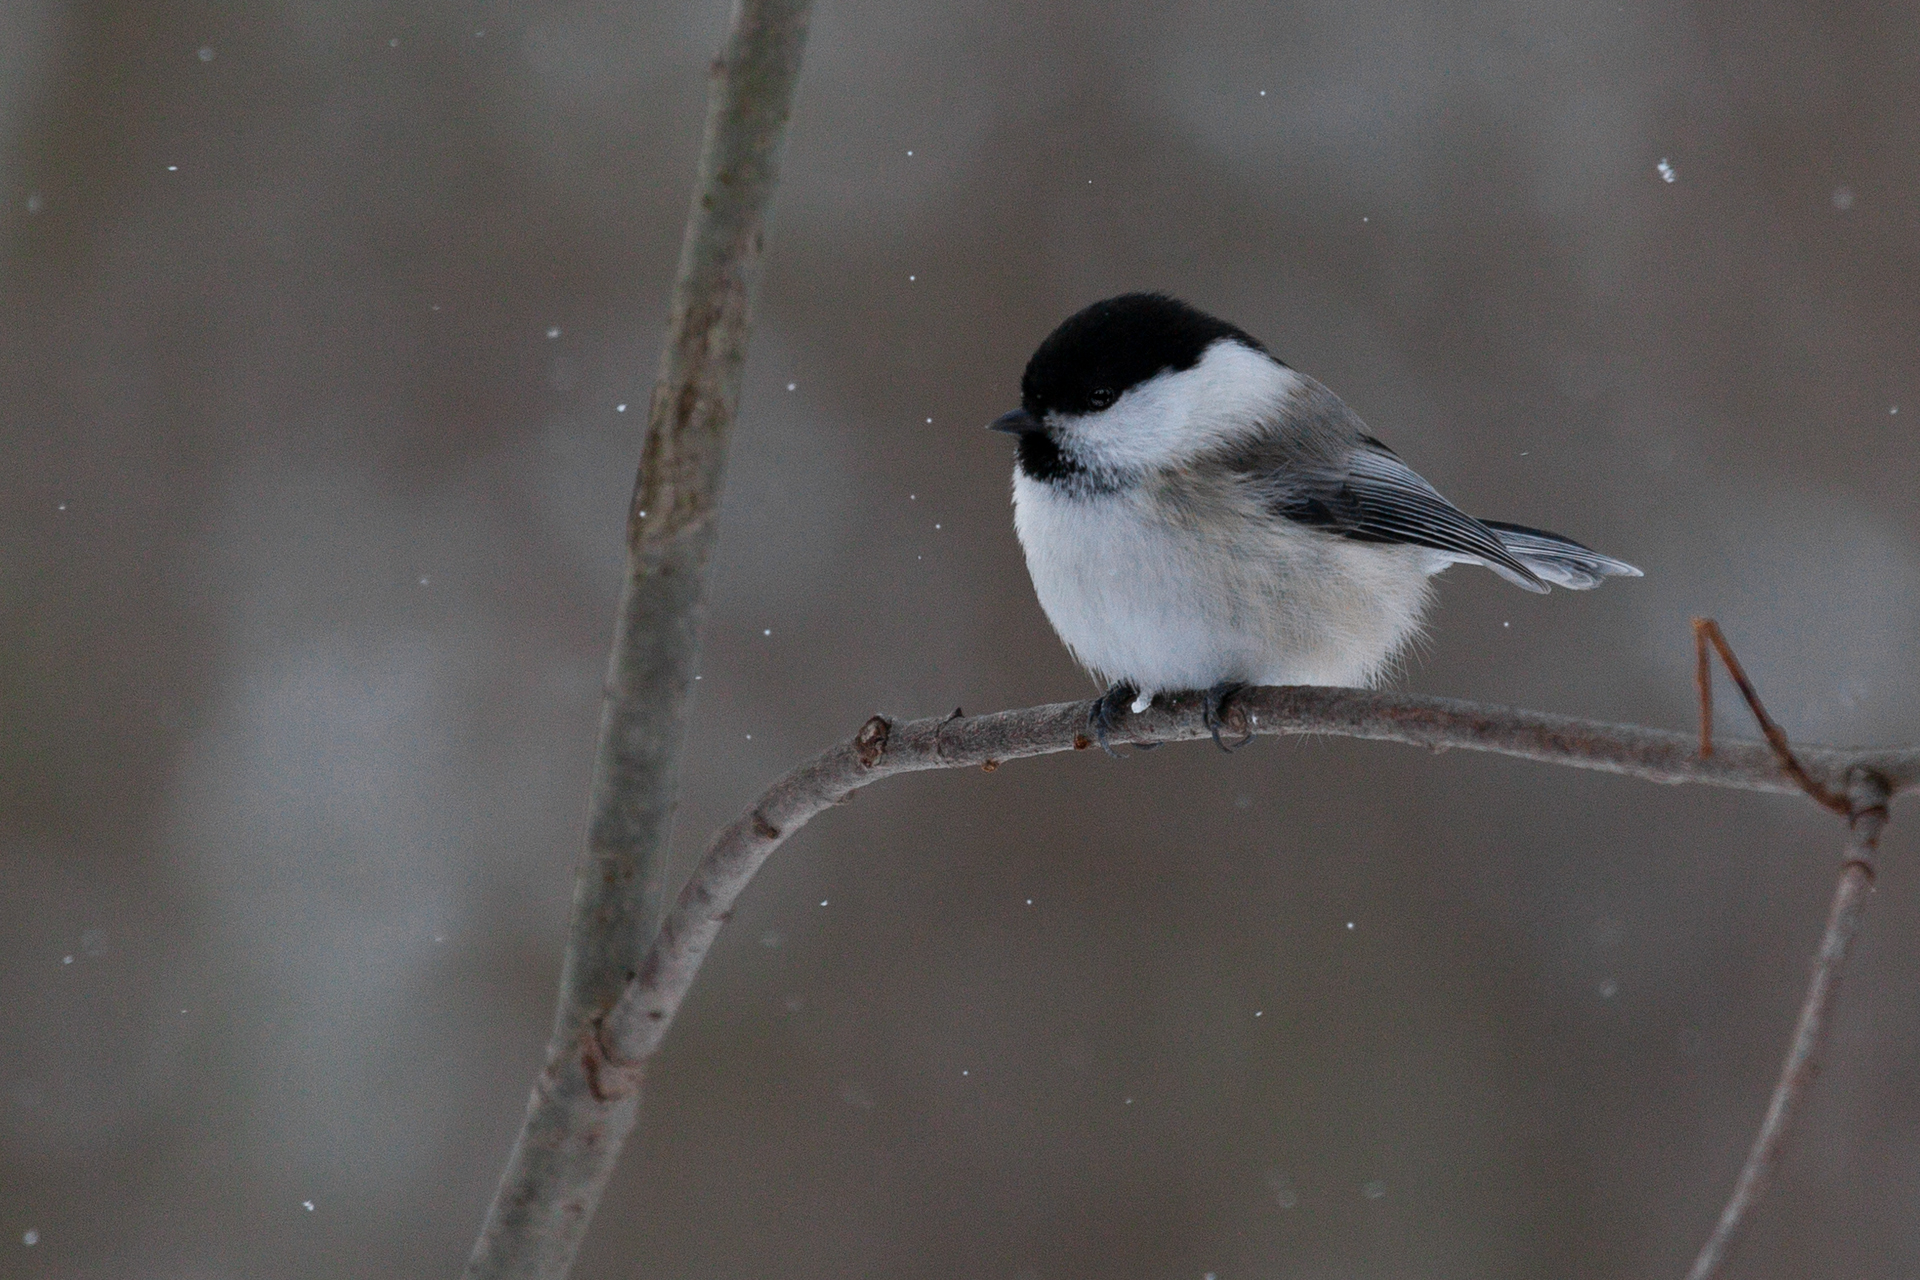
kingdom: Animalia
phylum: Chordata
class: Aves
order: Passeriformes
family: Paridae
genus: Poecile
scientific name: Poecile montanus
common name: Willow tit
